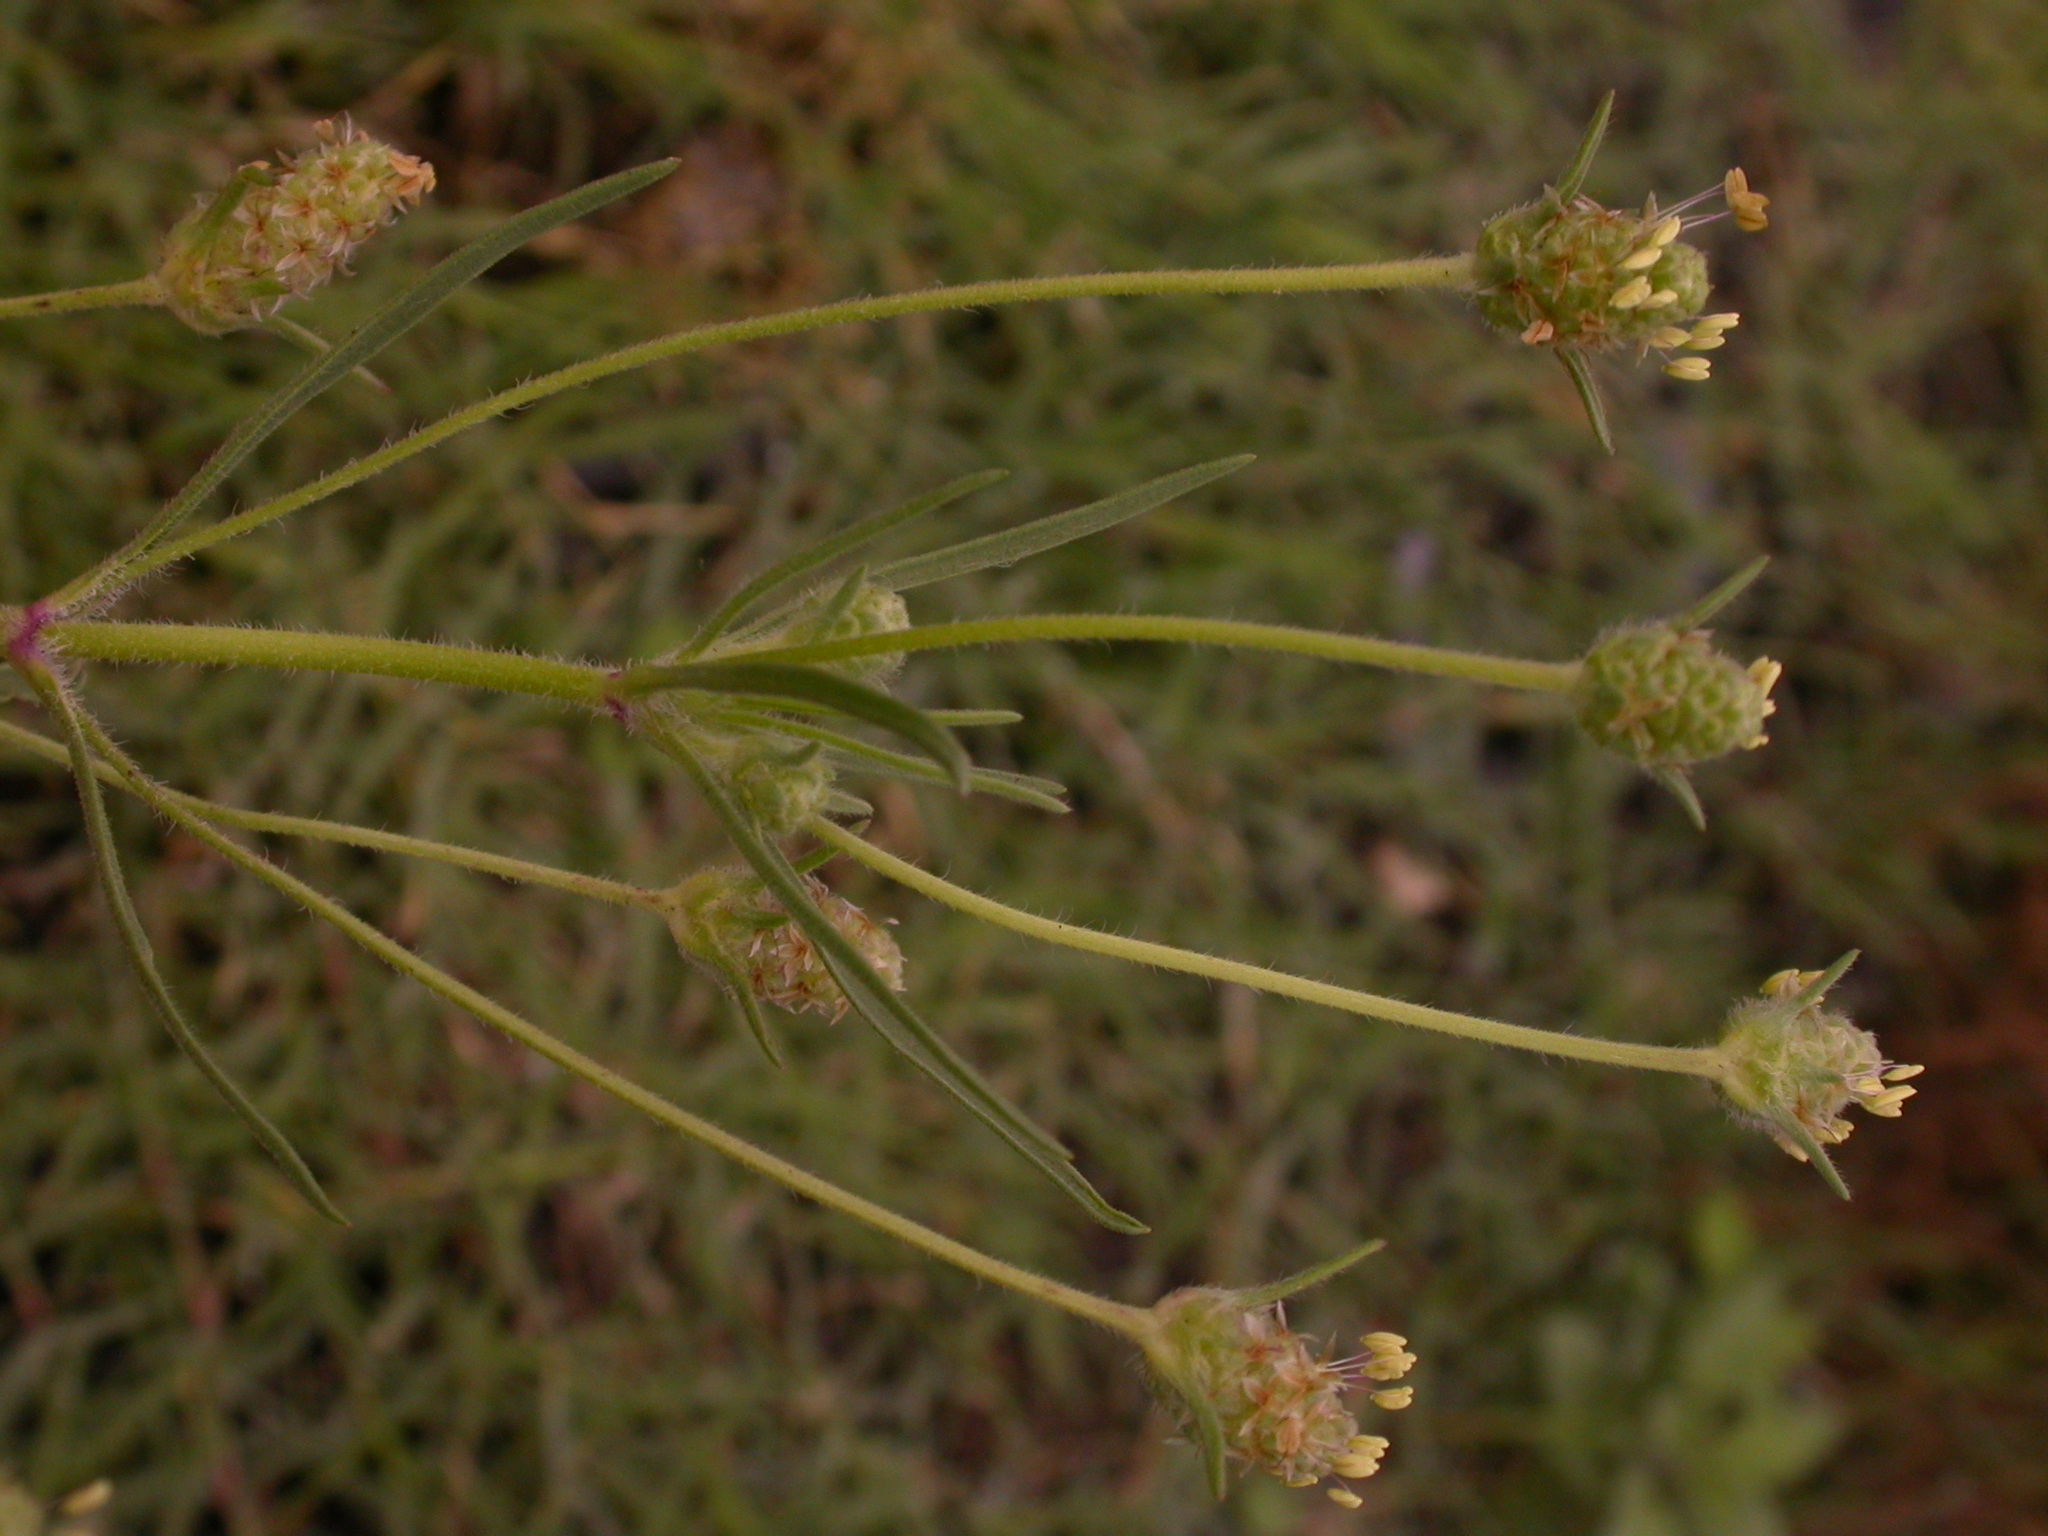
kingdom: Plantae
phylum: Tracheophyta
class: Magnoliopsida
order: Lamiales
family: Plantaginaceae
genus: Plantago
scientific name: Plantago arenaria
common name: Branched plantain
